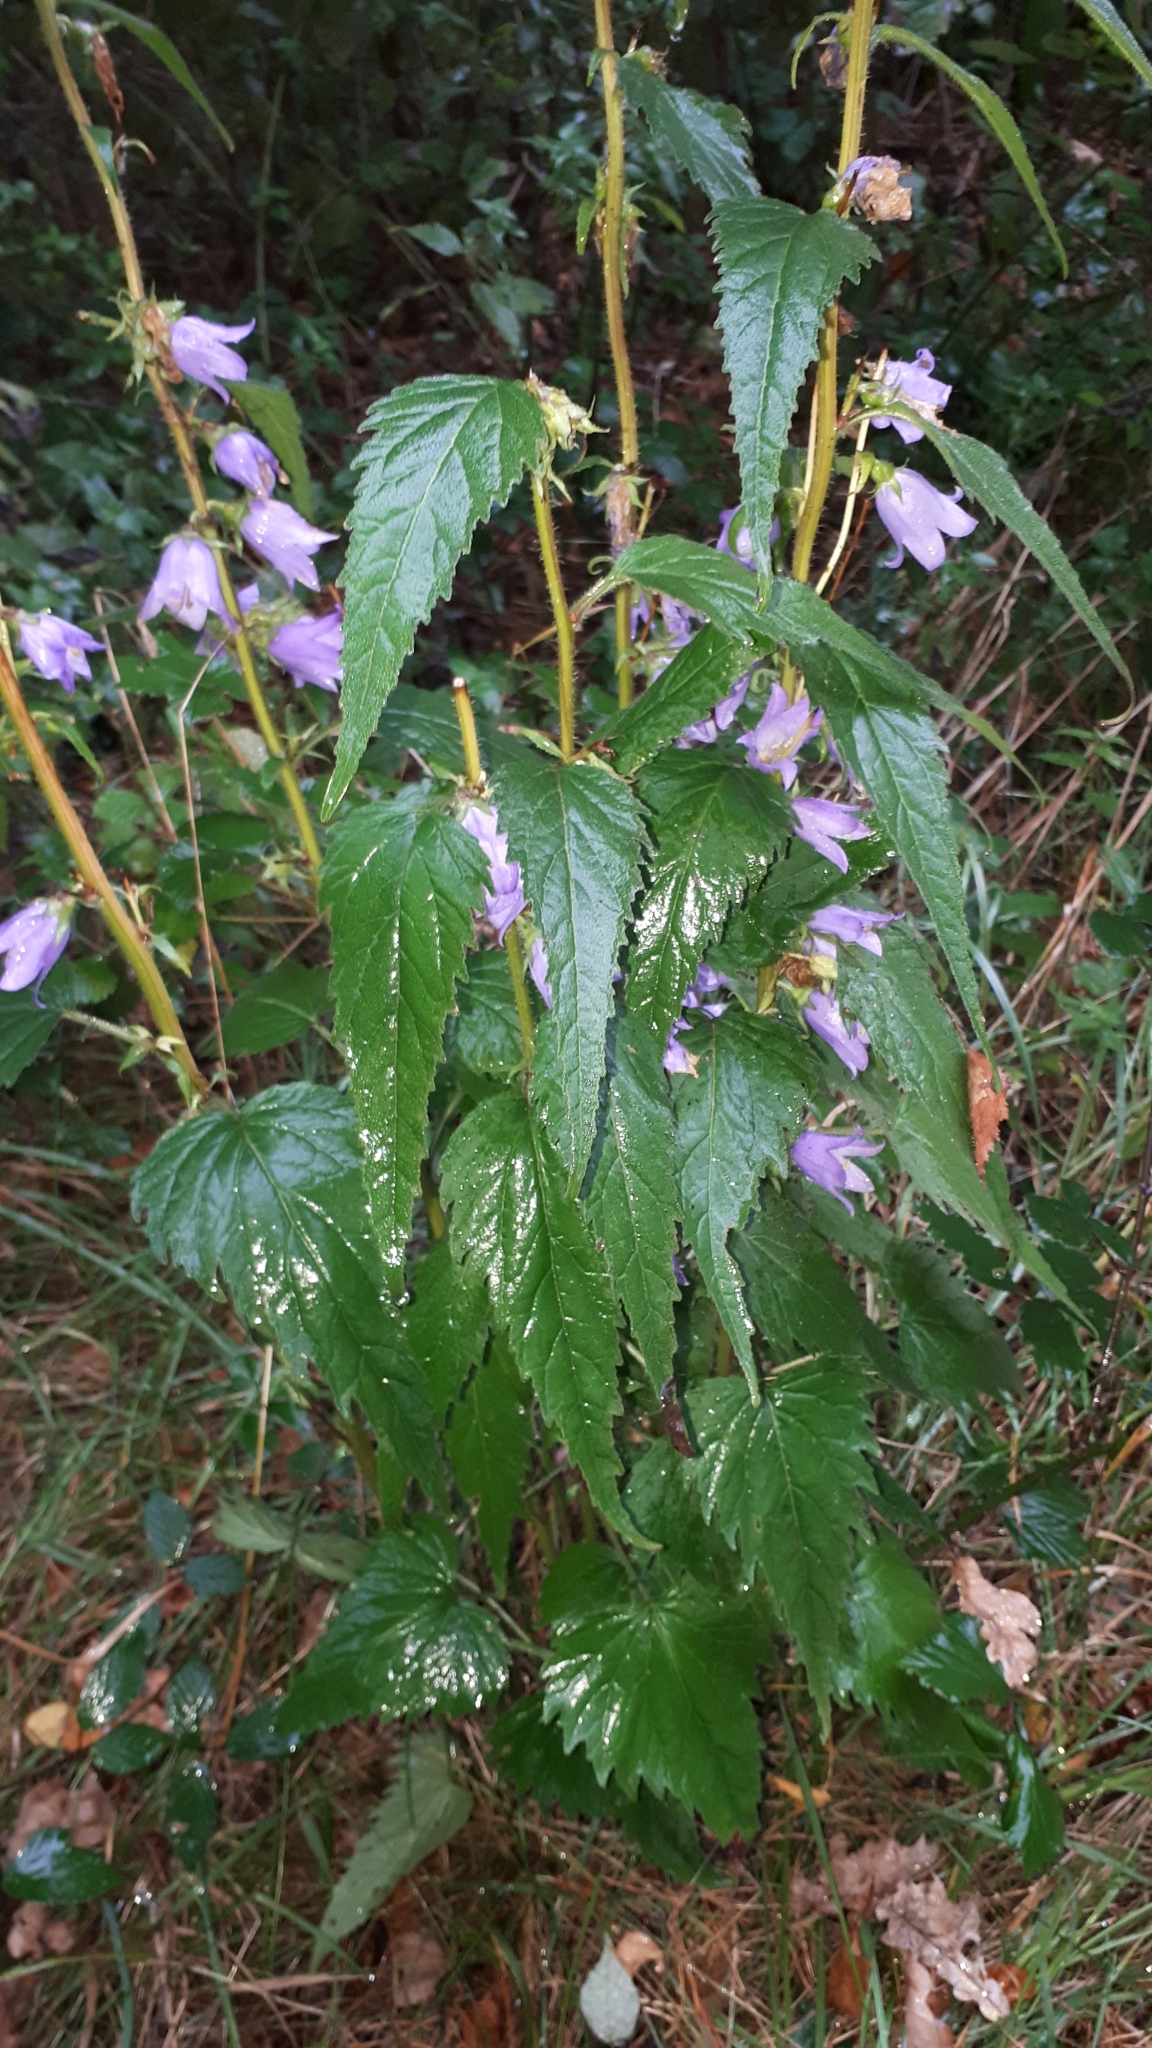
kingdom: Plantae
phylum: Tracheophyta
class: Magnoliopsida
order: Asterales
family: Campanulaceae
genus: Campanula
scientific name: Campanula trachelium
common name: Nettle-leaved bellflower
